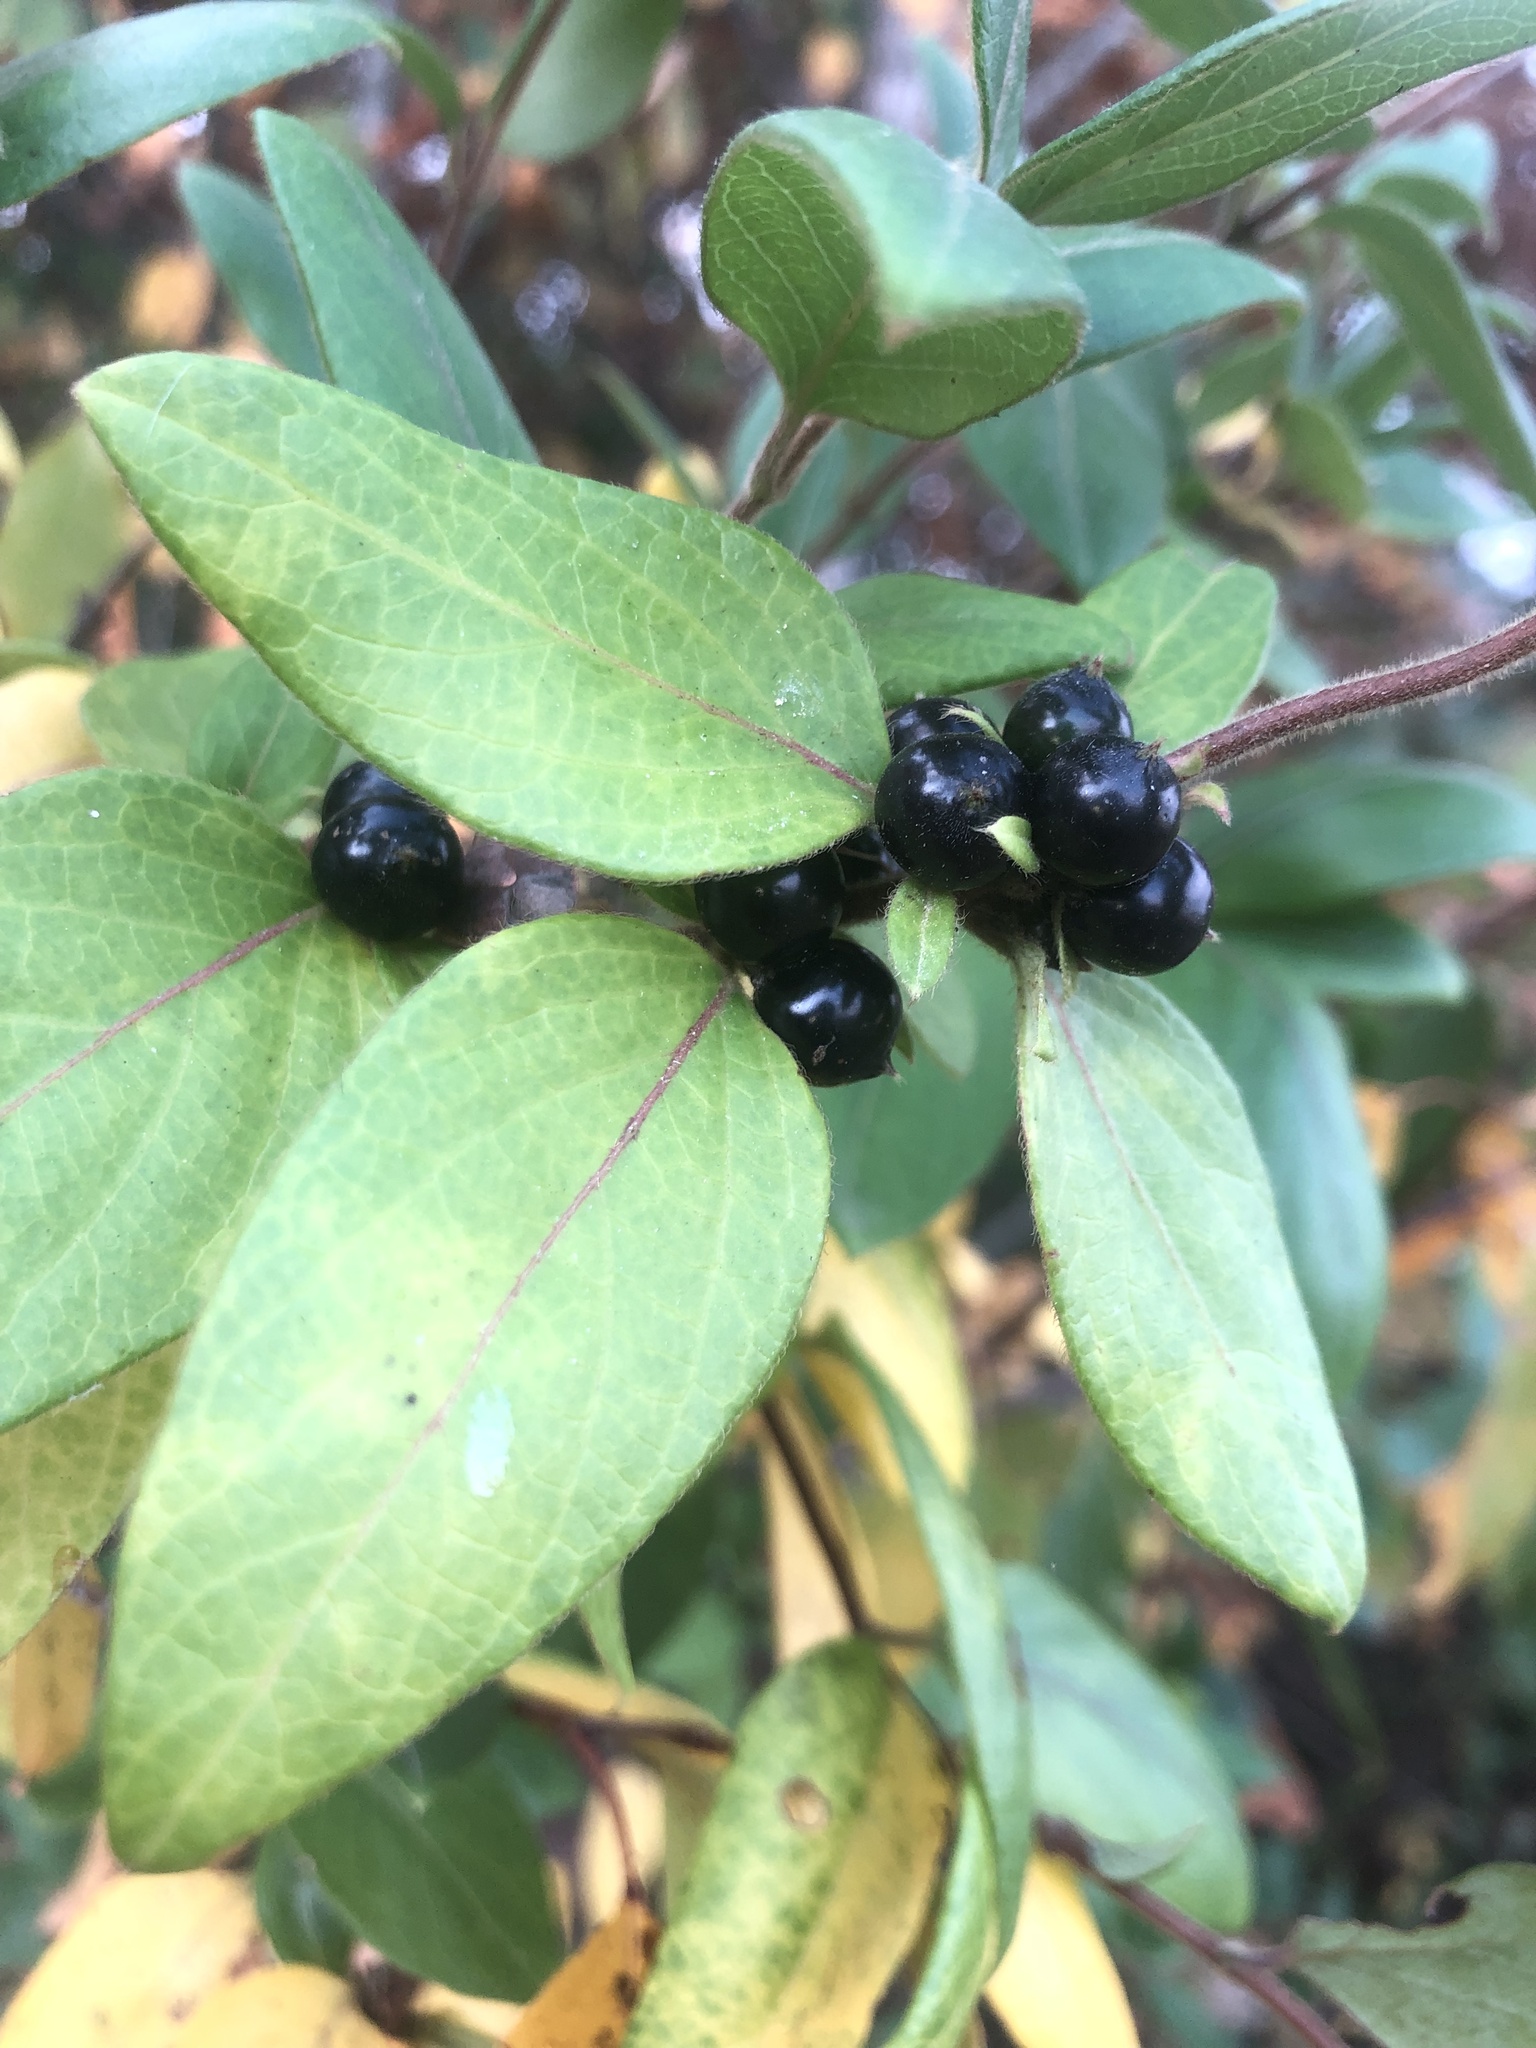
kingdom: Plantae
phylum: Tracheophyta
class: Magnoliopsida
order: Dipsacales
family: Caprifoliaceae
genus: Lonicera
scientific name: Lonicera japonica
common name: Japanese honeysuckle
